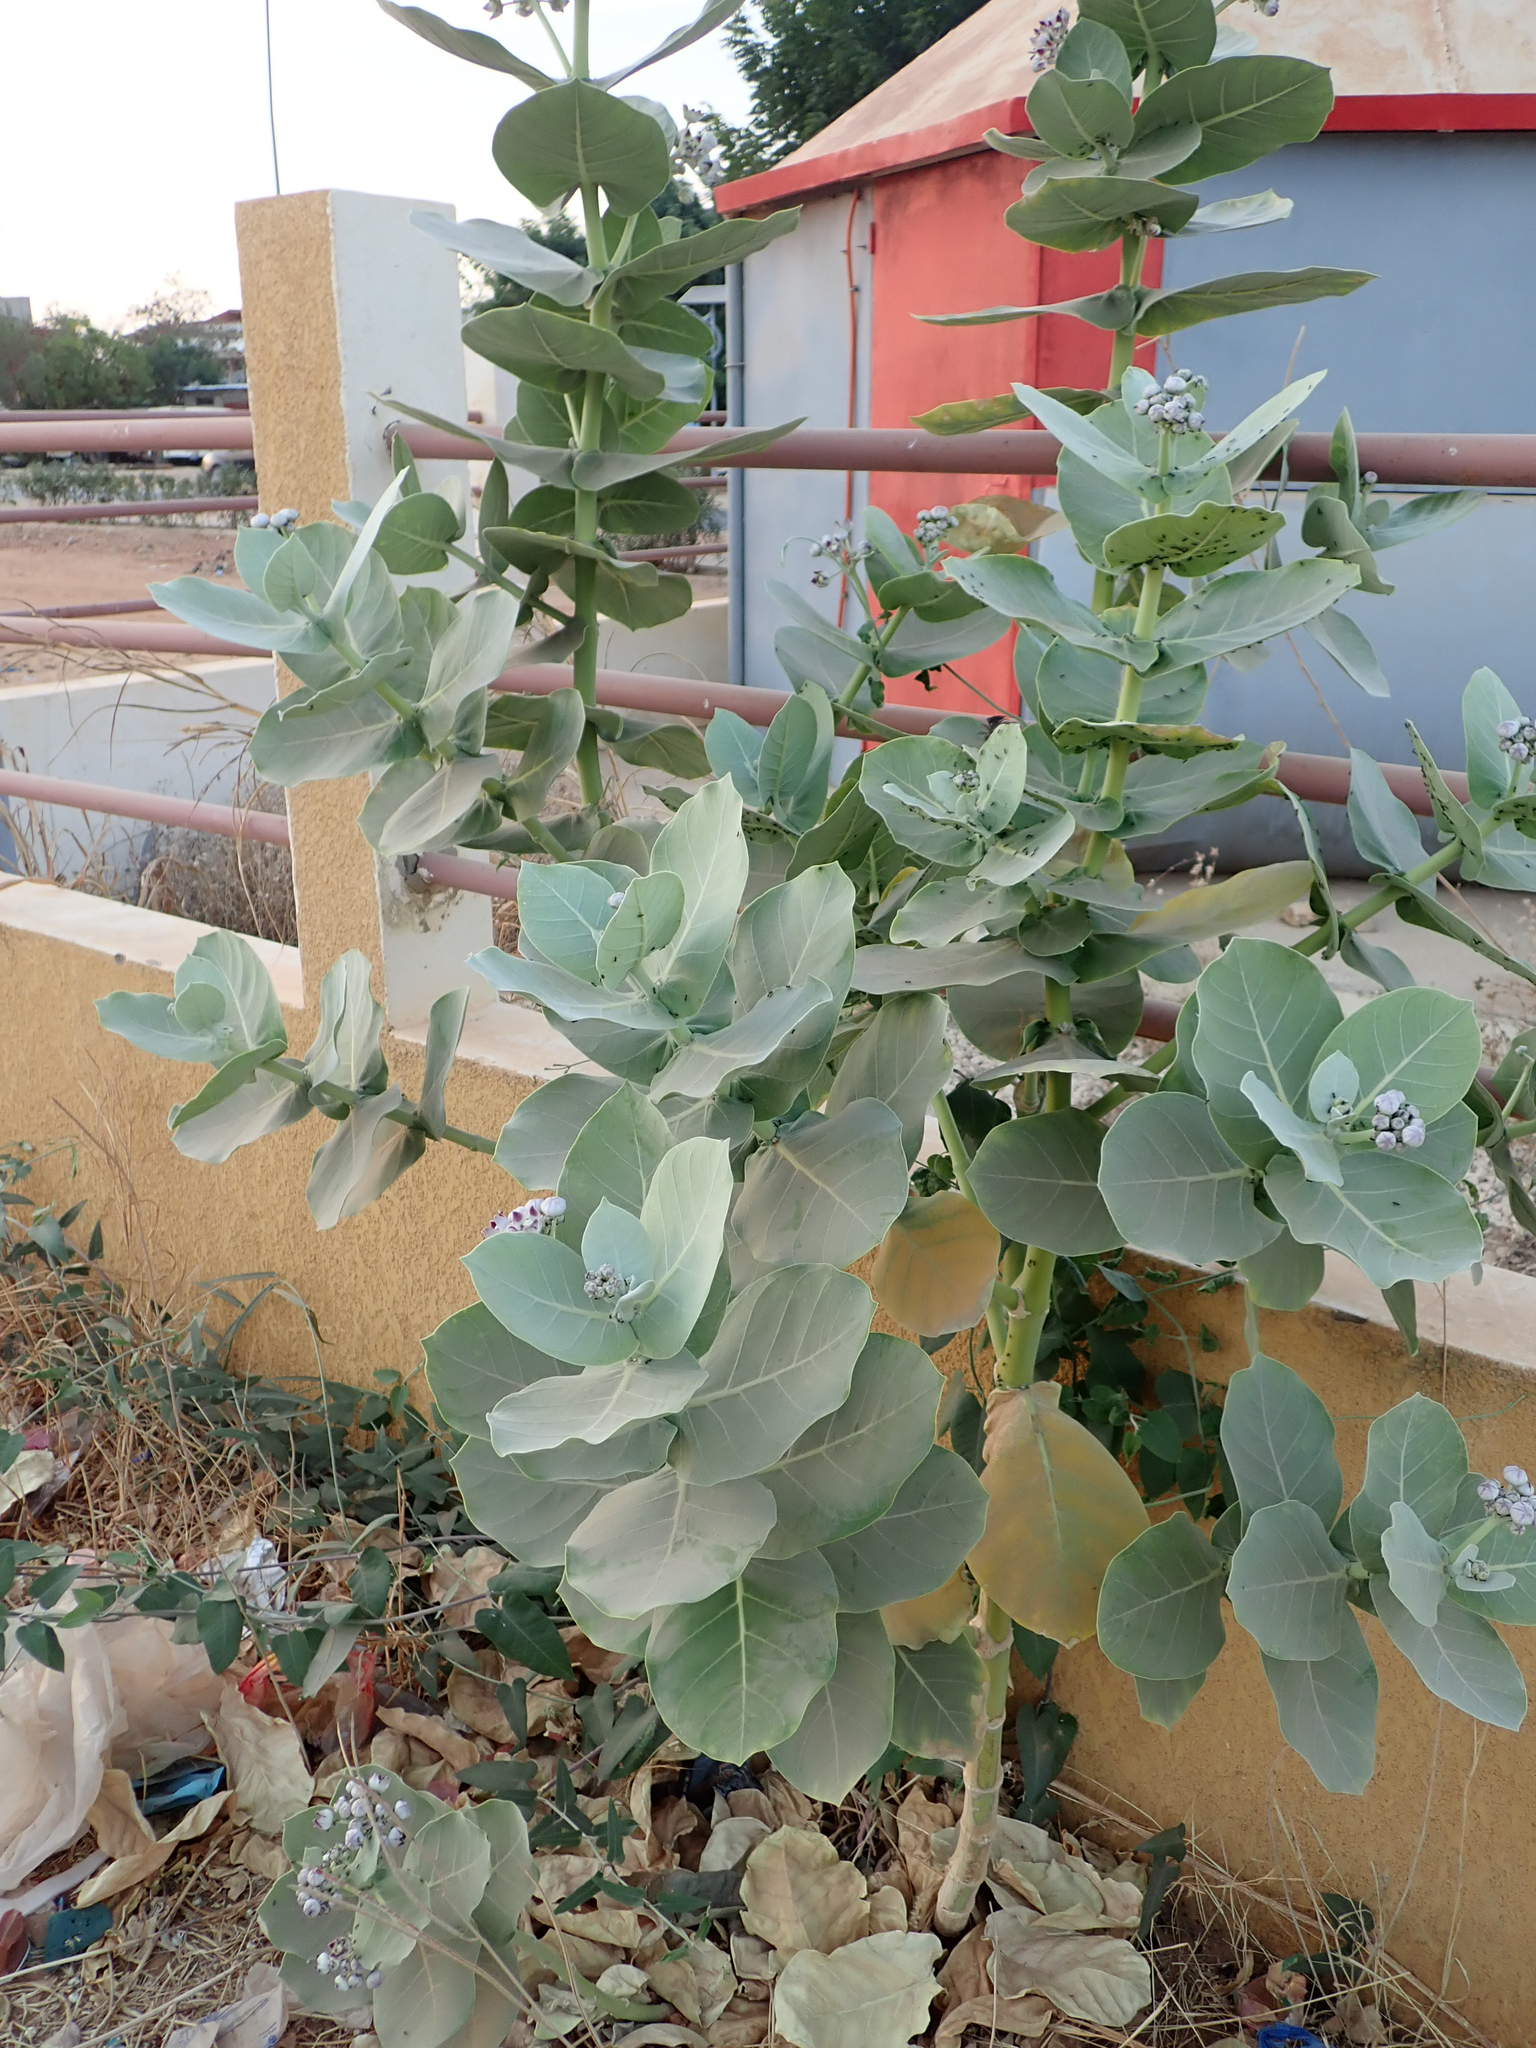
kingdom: Plantae
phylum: Tracheophyta
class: Magnoliopsida
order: Gentianales
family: Apocynaceae
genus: Calotropis
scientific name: Calotropis procera
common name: Roostertree
